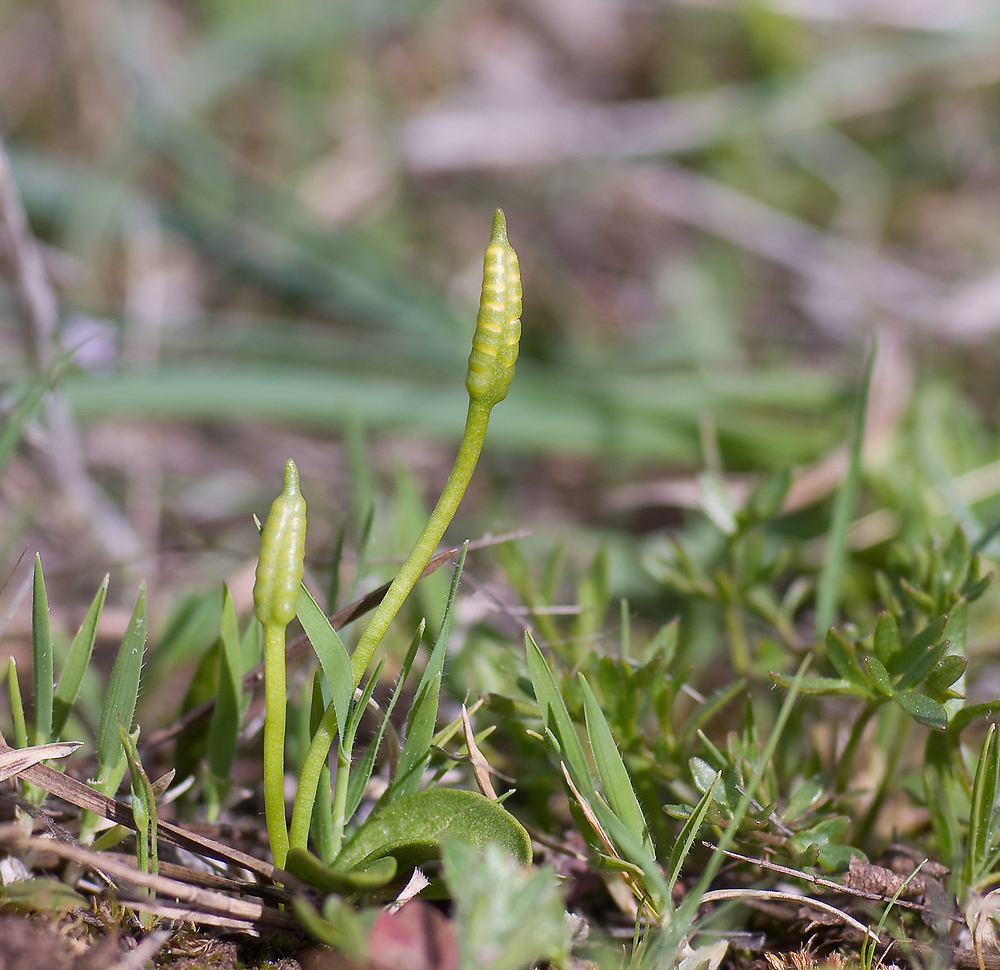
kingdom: Plantae
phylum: Tracheophyta
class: Polypodiopsida
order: Ophioglossales
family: Ophioglossaceae
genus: Ophioglossum
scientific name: Ophioglossum azoricum
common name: Small adder's-tongue
